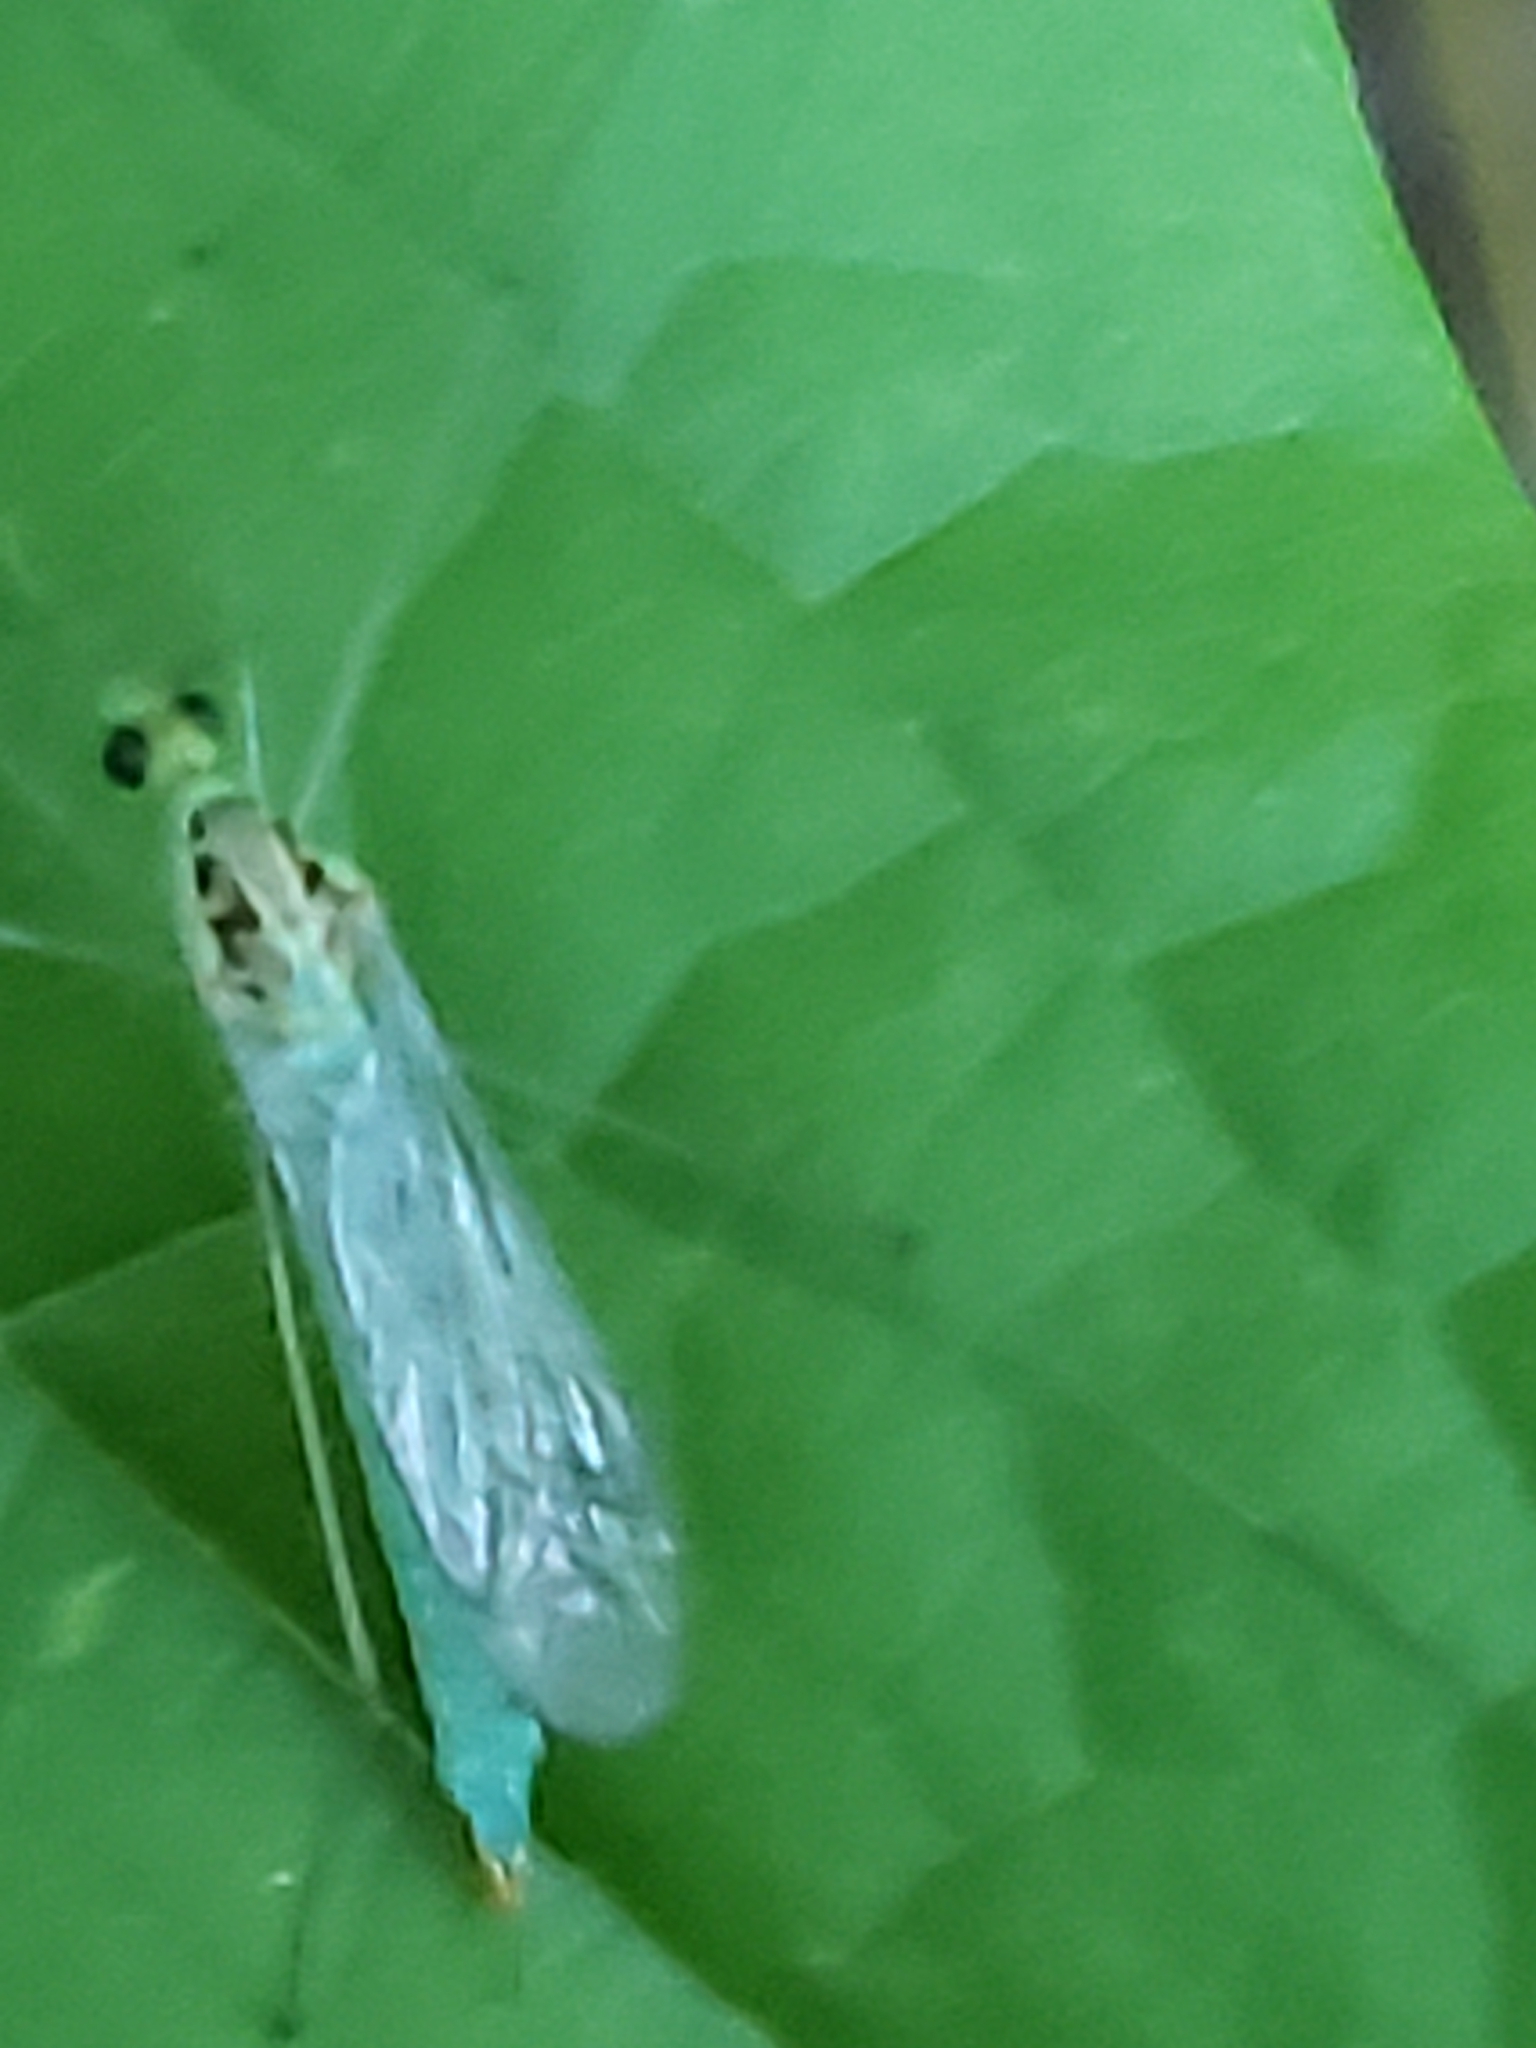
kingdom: Animalia
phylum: Arthropoda
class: Insecta
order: Diptera
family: Tipulidae
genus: Nephrotoma
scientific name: Nephrotoma virescens
